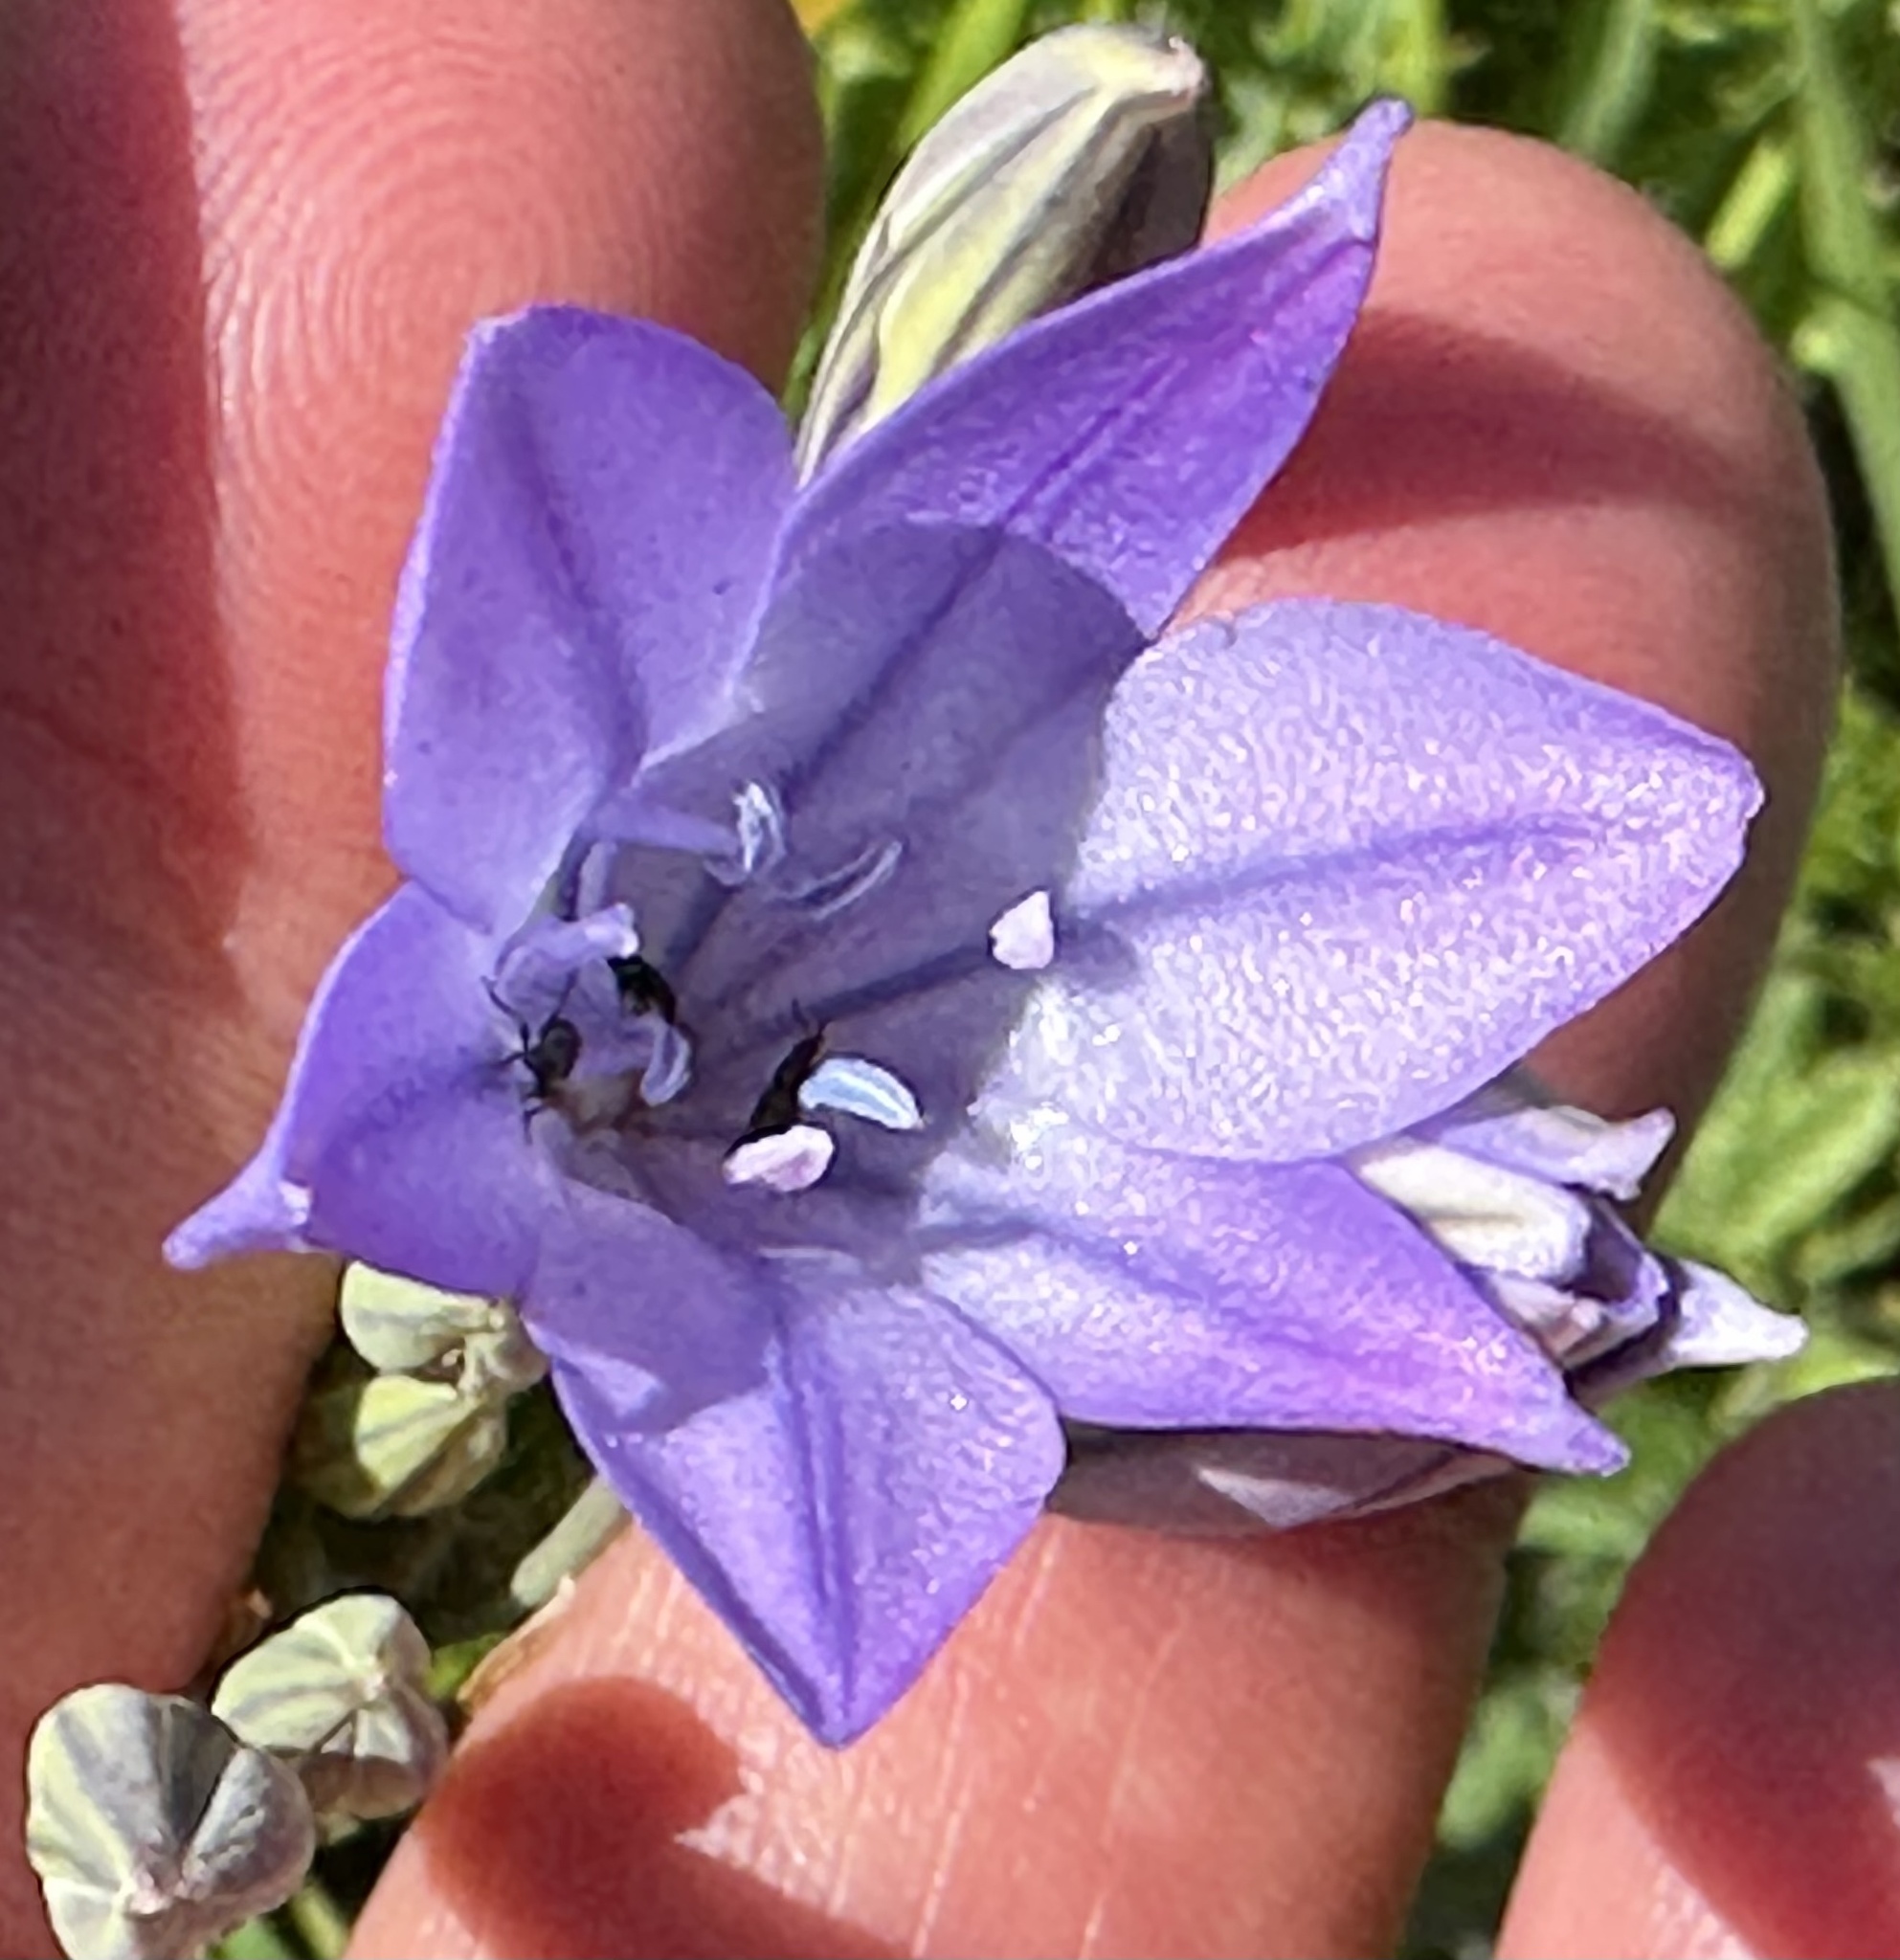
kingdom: Plantae
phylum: Tracheophyta
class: Liliopsida
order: Asparagales
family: Asparagaceae
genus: Triteleia
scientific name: Triteleia laxa
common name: Triplet-lily
